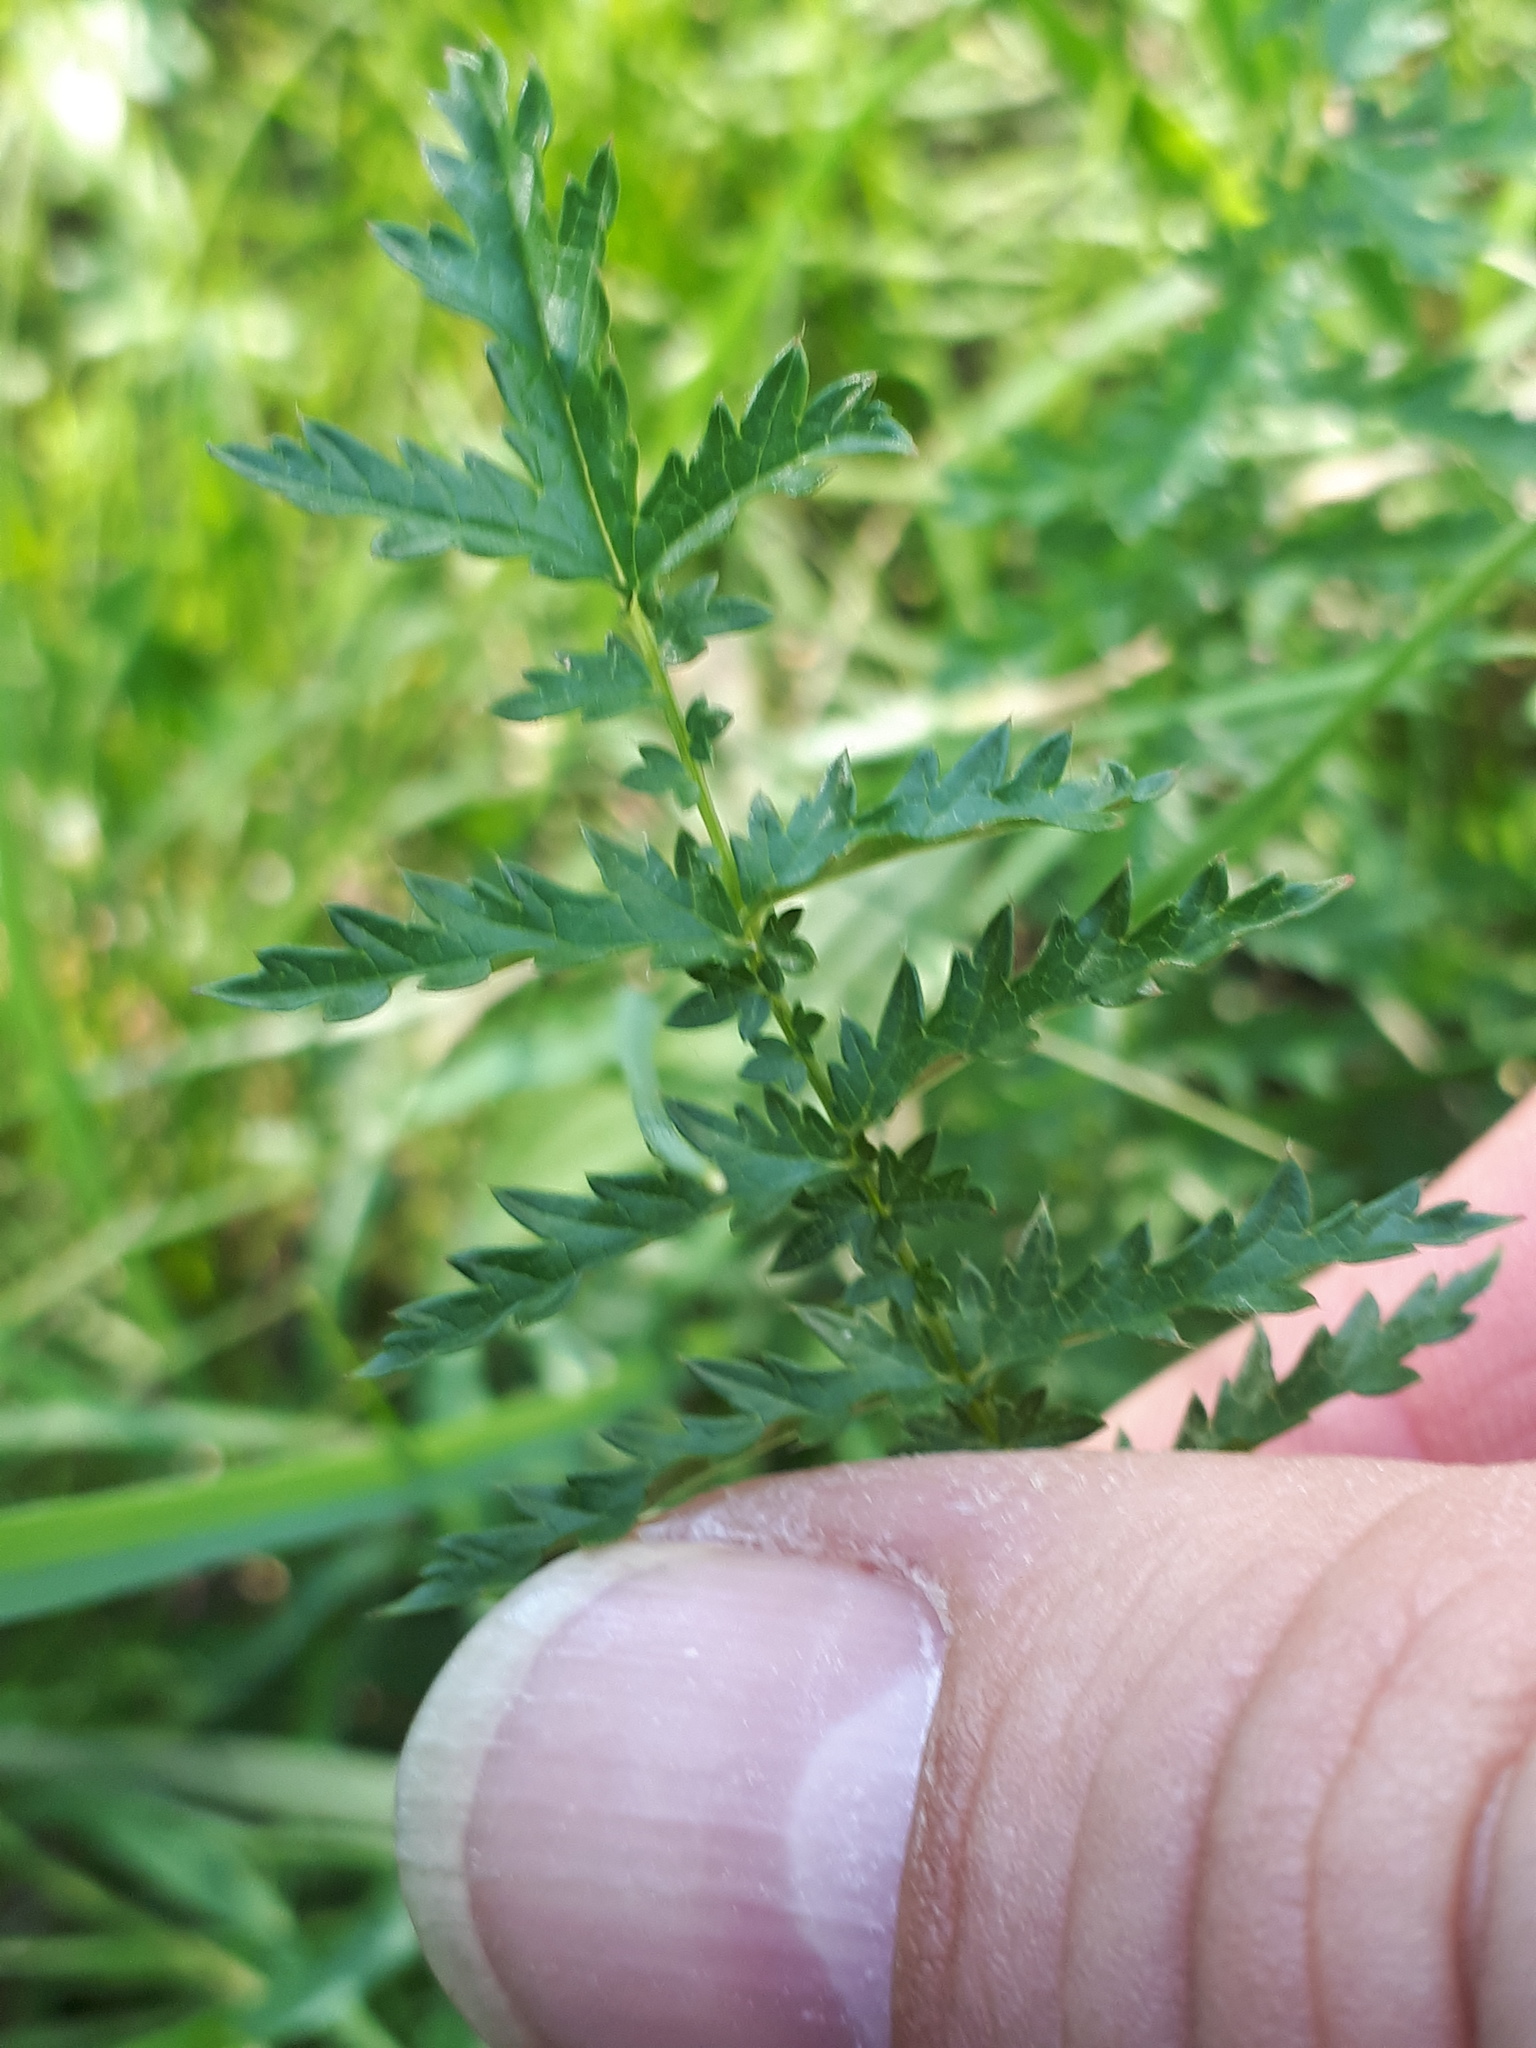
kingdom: Plantae
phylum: Tracheophyta
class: Magnoliopsida
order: Rosales
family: Rosaceae
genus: Filipendula
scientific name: Filipendula vulgaris
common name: Dropwort
